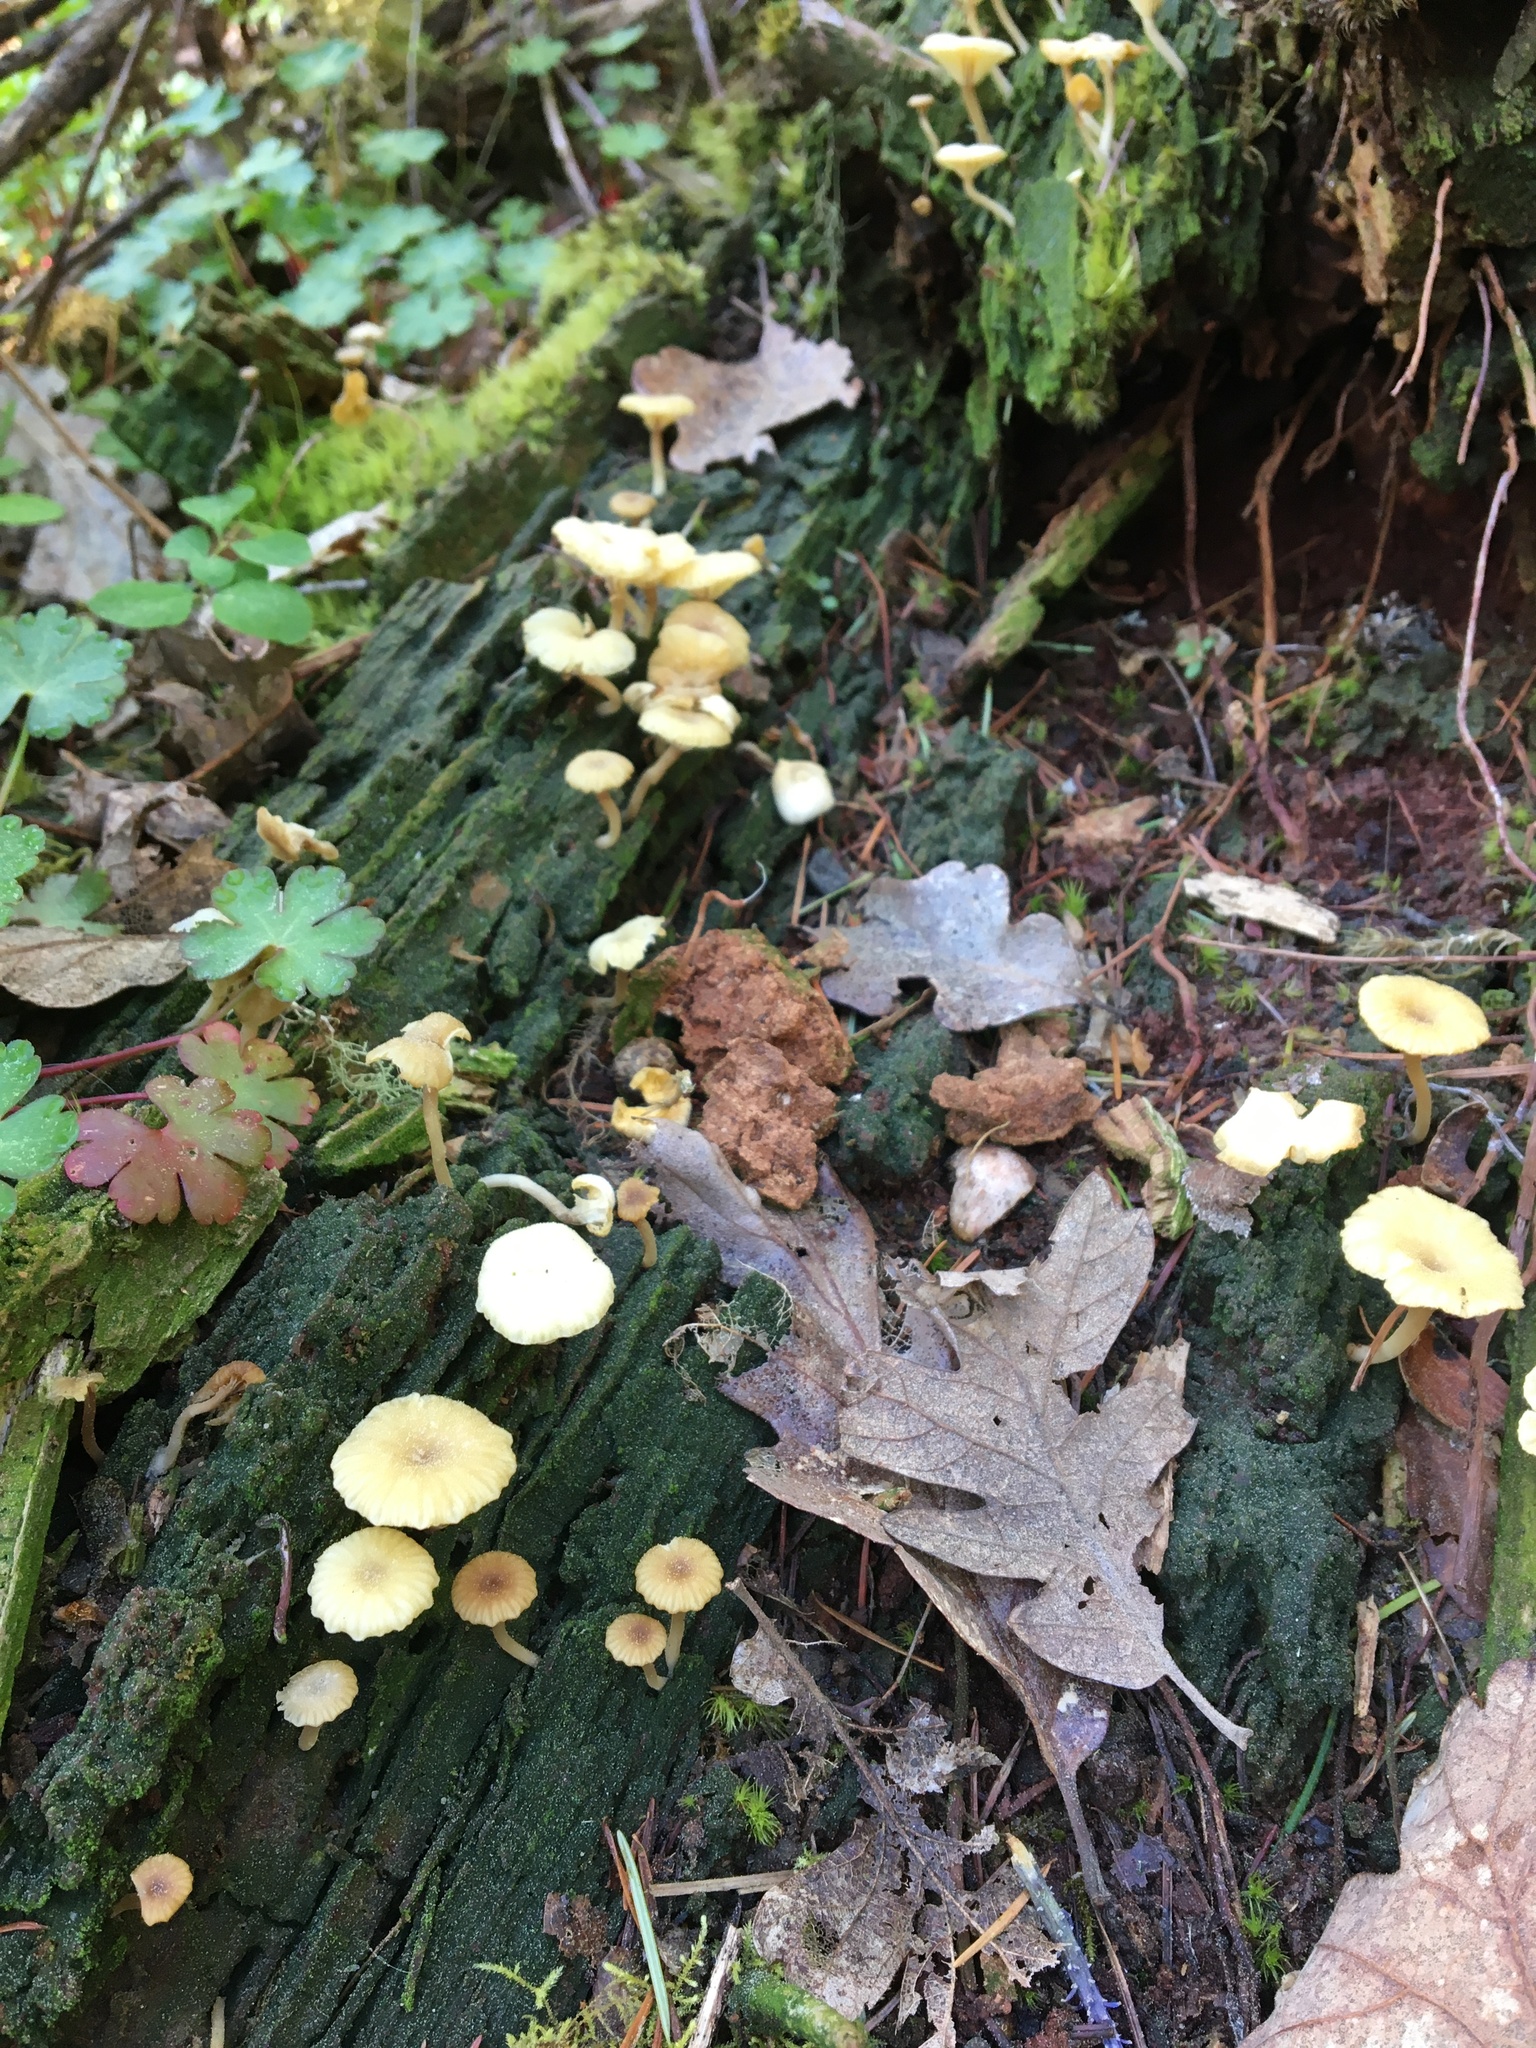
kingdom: Fungi
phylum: Basidiomycota
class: Agaricomycetes
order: Agaricales
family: Hygrophoraceae
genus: Lichenomphalia
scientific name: Lichenomphalia
